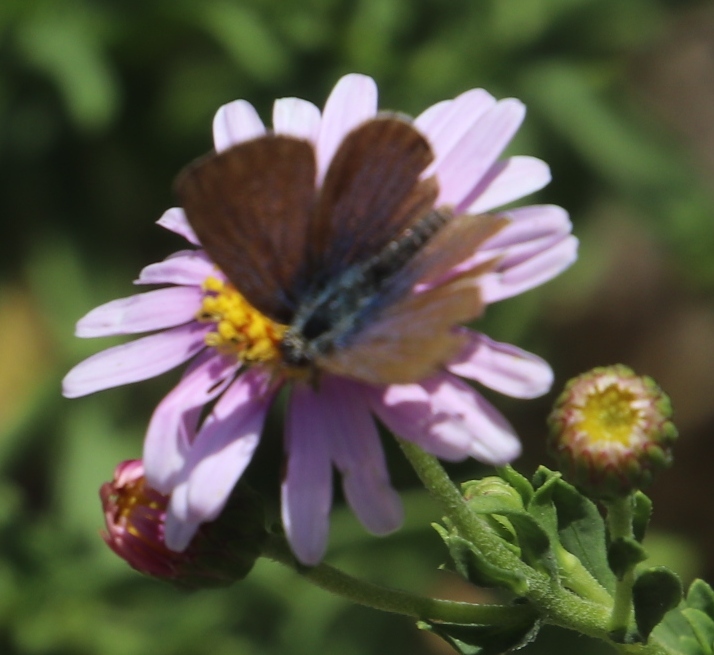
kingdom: Animalia
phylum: Arthropoda
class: Insecta
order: Lepidoptera
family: Lycaenidae
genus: Zizeeria
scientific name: Zizeeria knysna
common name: African grass blue
